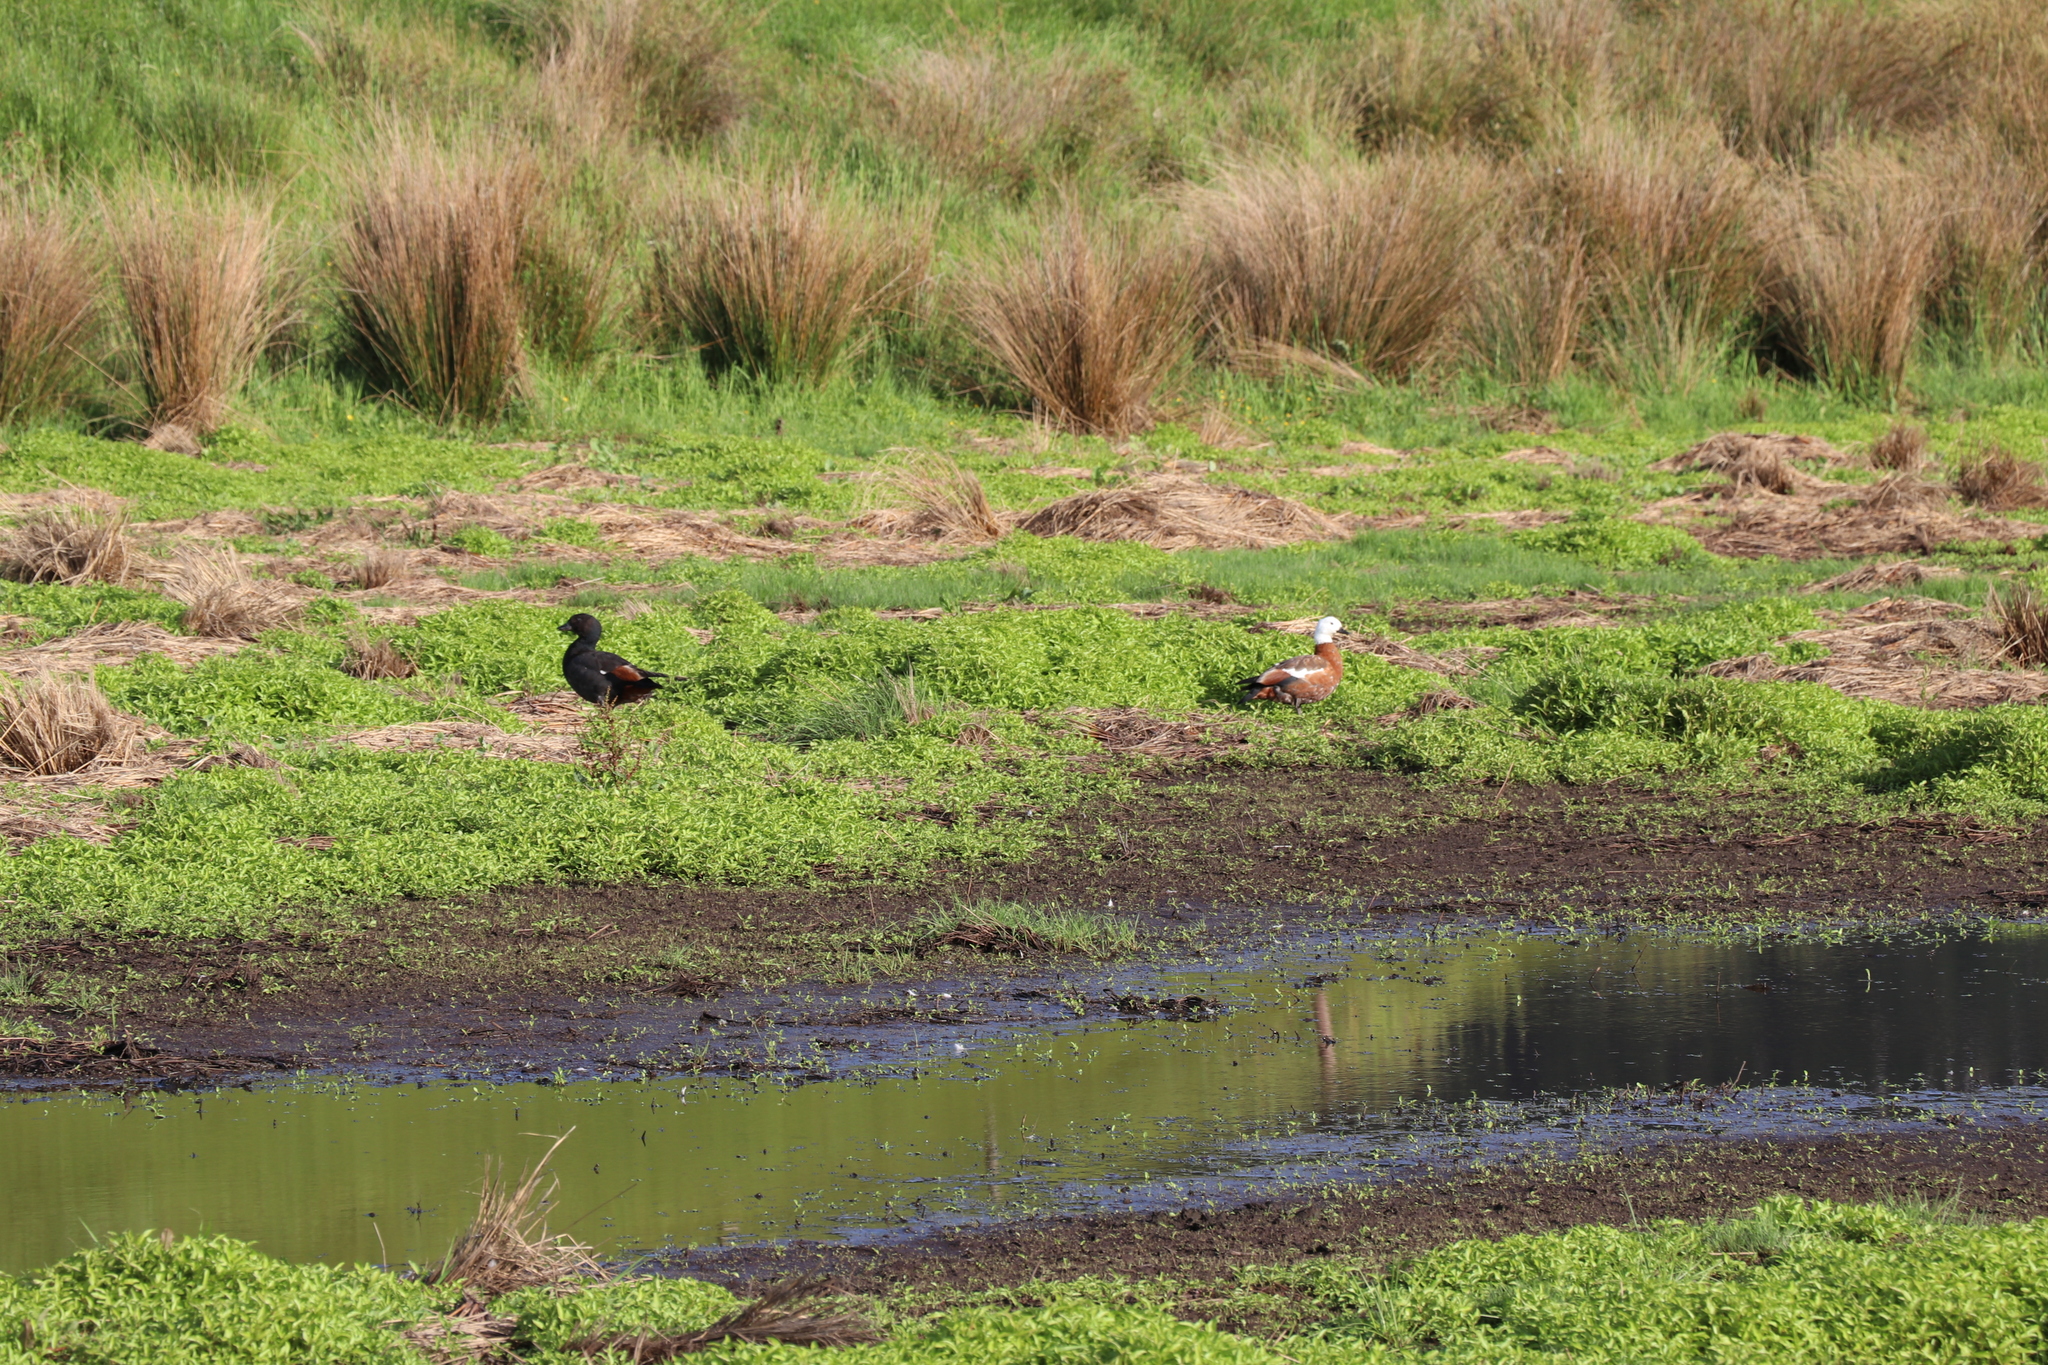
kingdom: Animalia
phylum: Chordata
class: Aves
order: Anseriformes
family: Anatidae
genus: Tadorna
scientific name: Tadorna variegata
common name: Paradise shelduck
